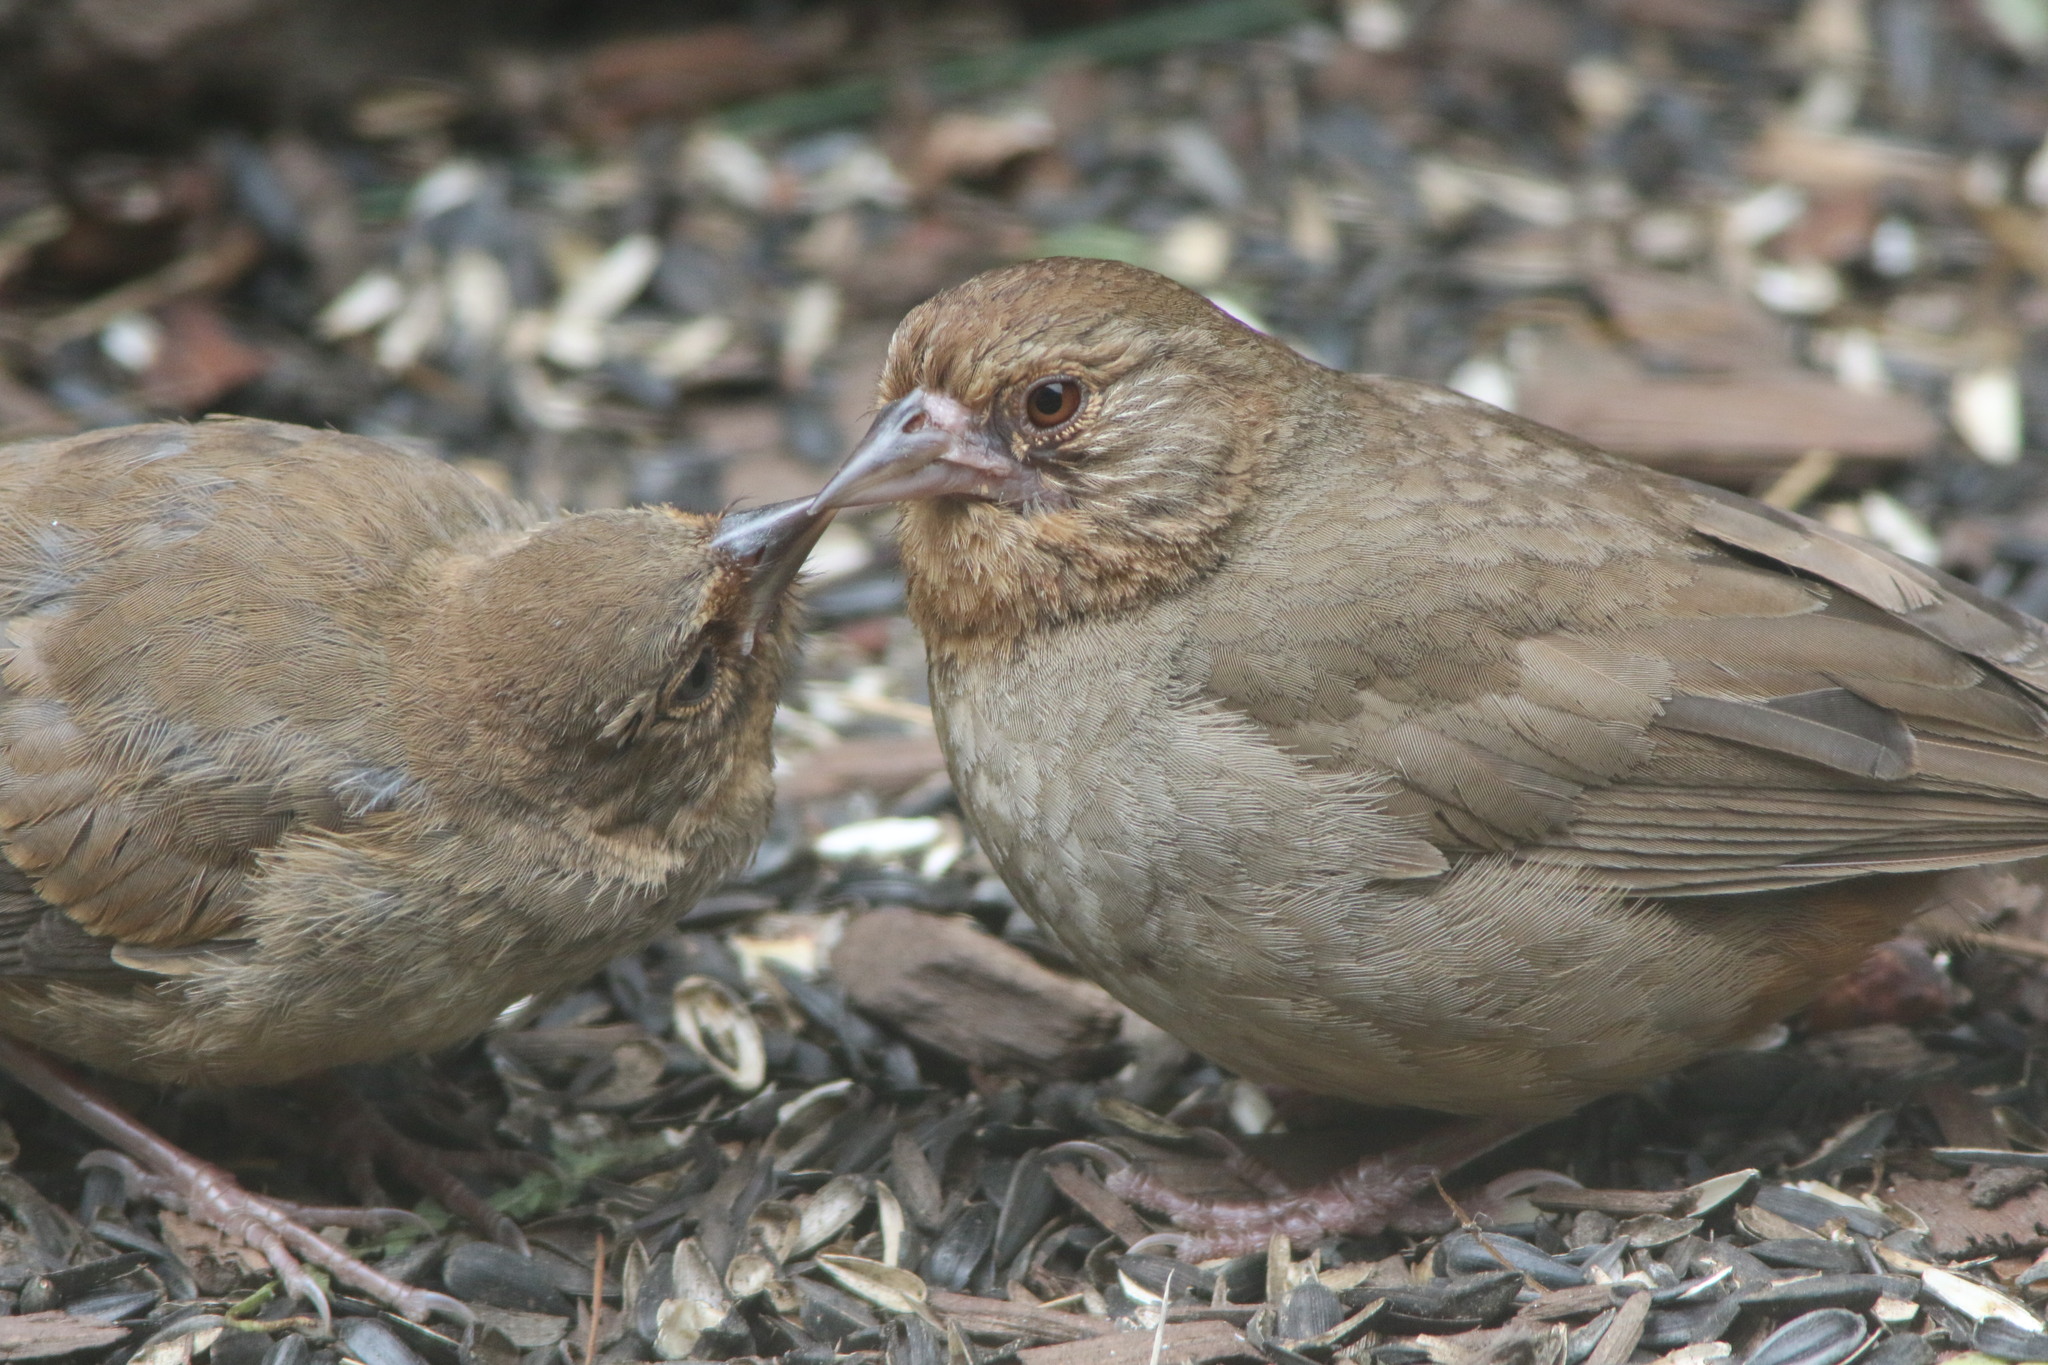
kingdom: Animalia
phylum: Chordata
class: Aves
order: Passeriformes
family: Passerellidae
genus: Melozone
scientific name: Melozone crissalis
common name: California towhee
